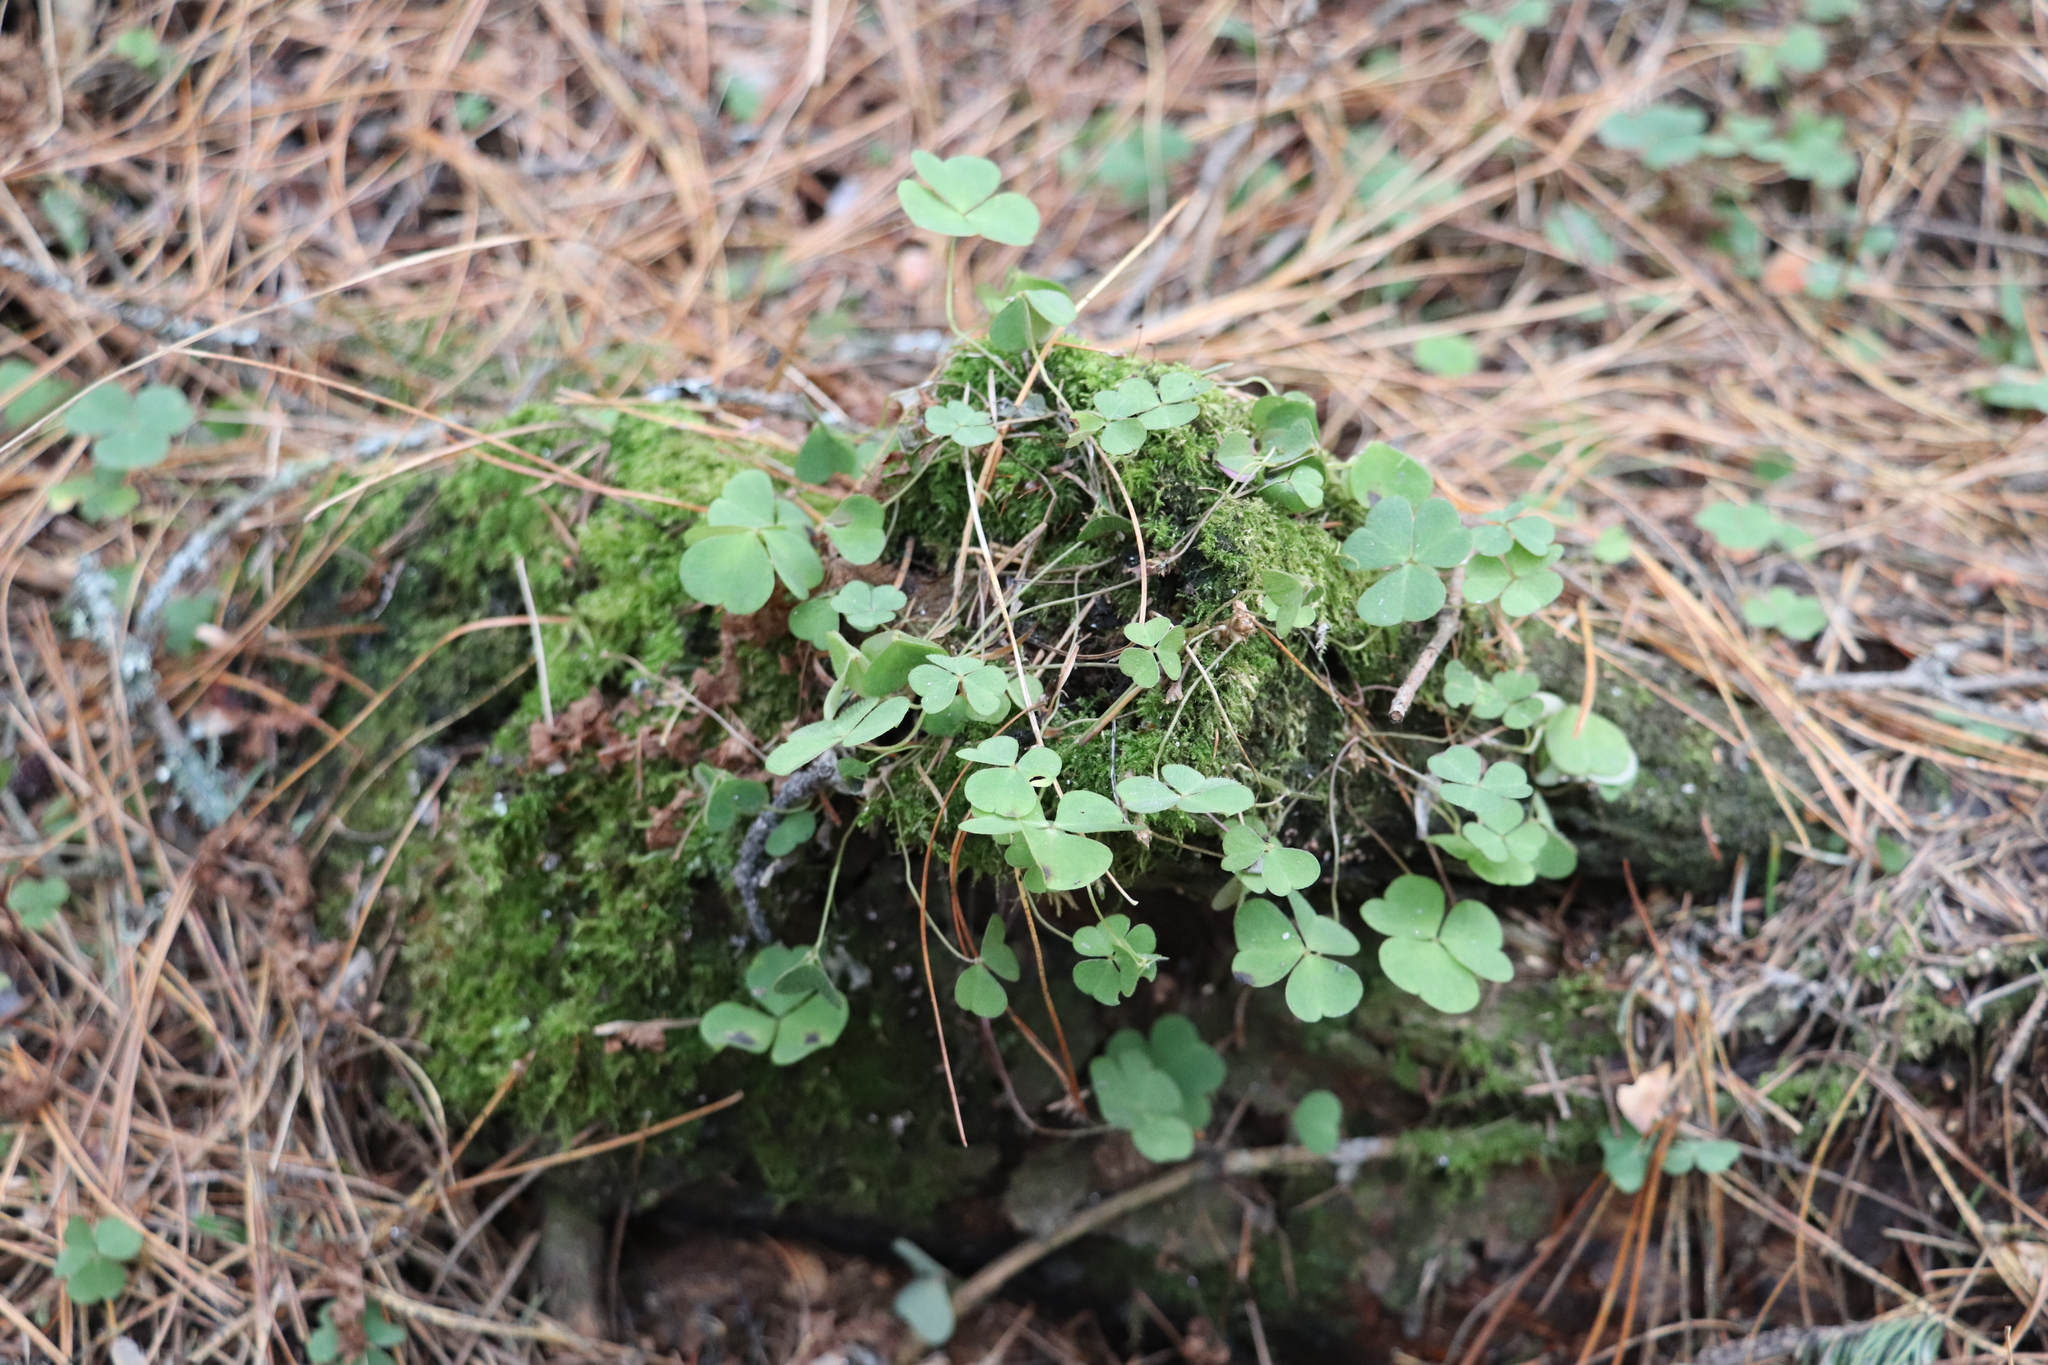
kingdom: Plantae
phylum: Tracheophyta
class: Magnoliopsida
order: Oxalidales
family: Oxalidaceae
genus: Oxalis
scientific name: Oxalis acetosella
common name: Wood-sorrel
